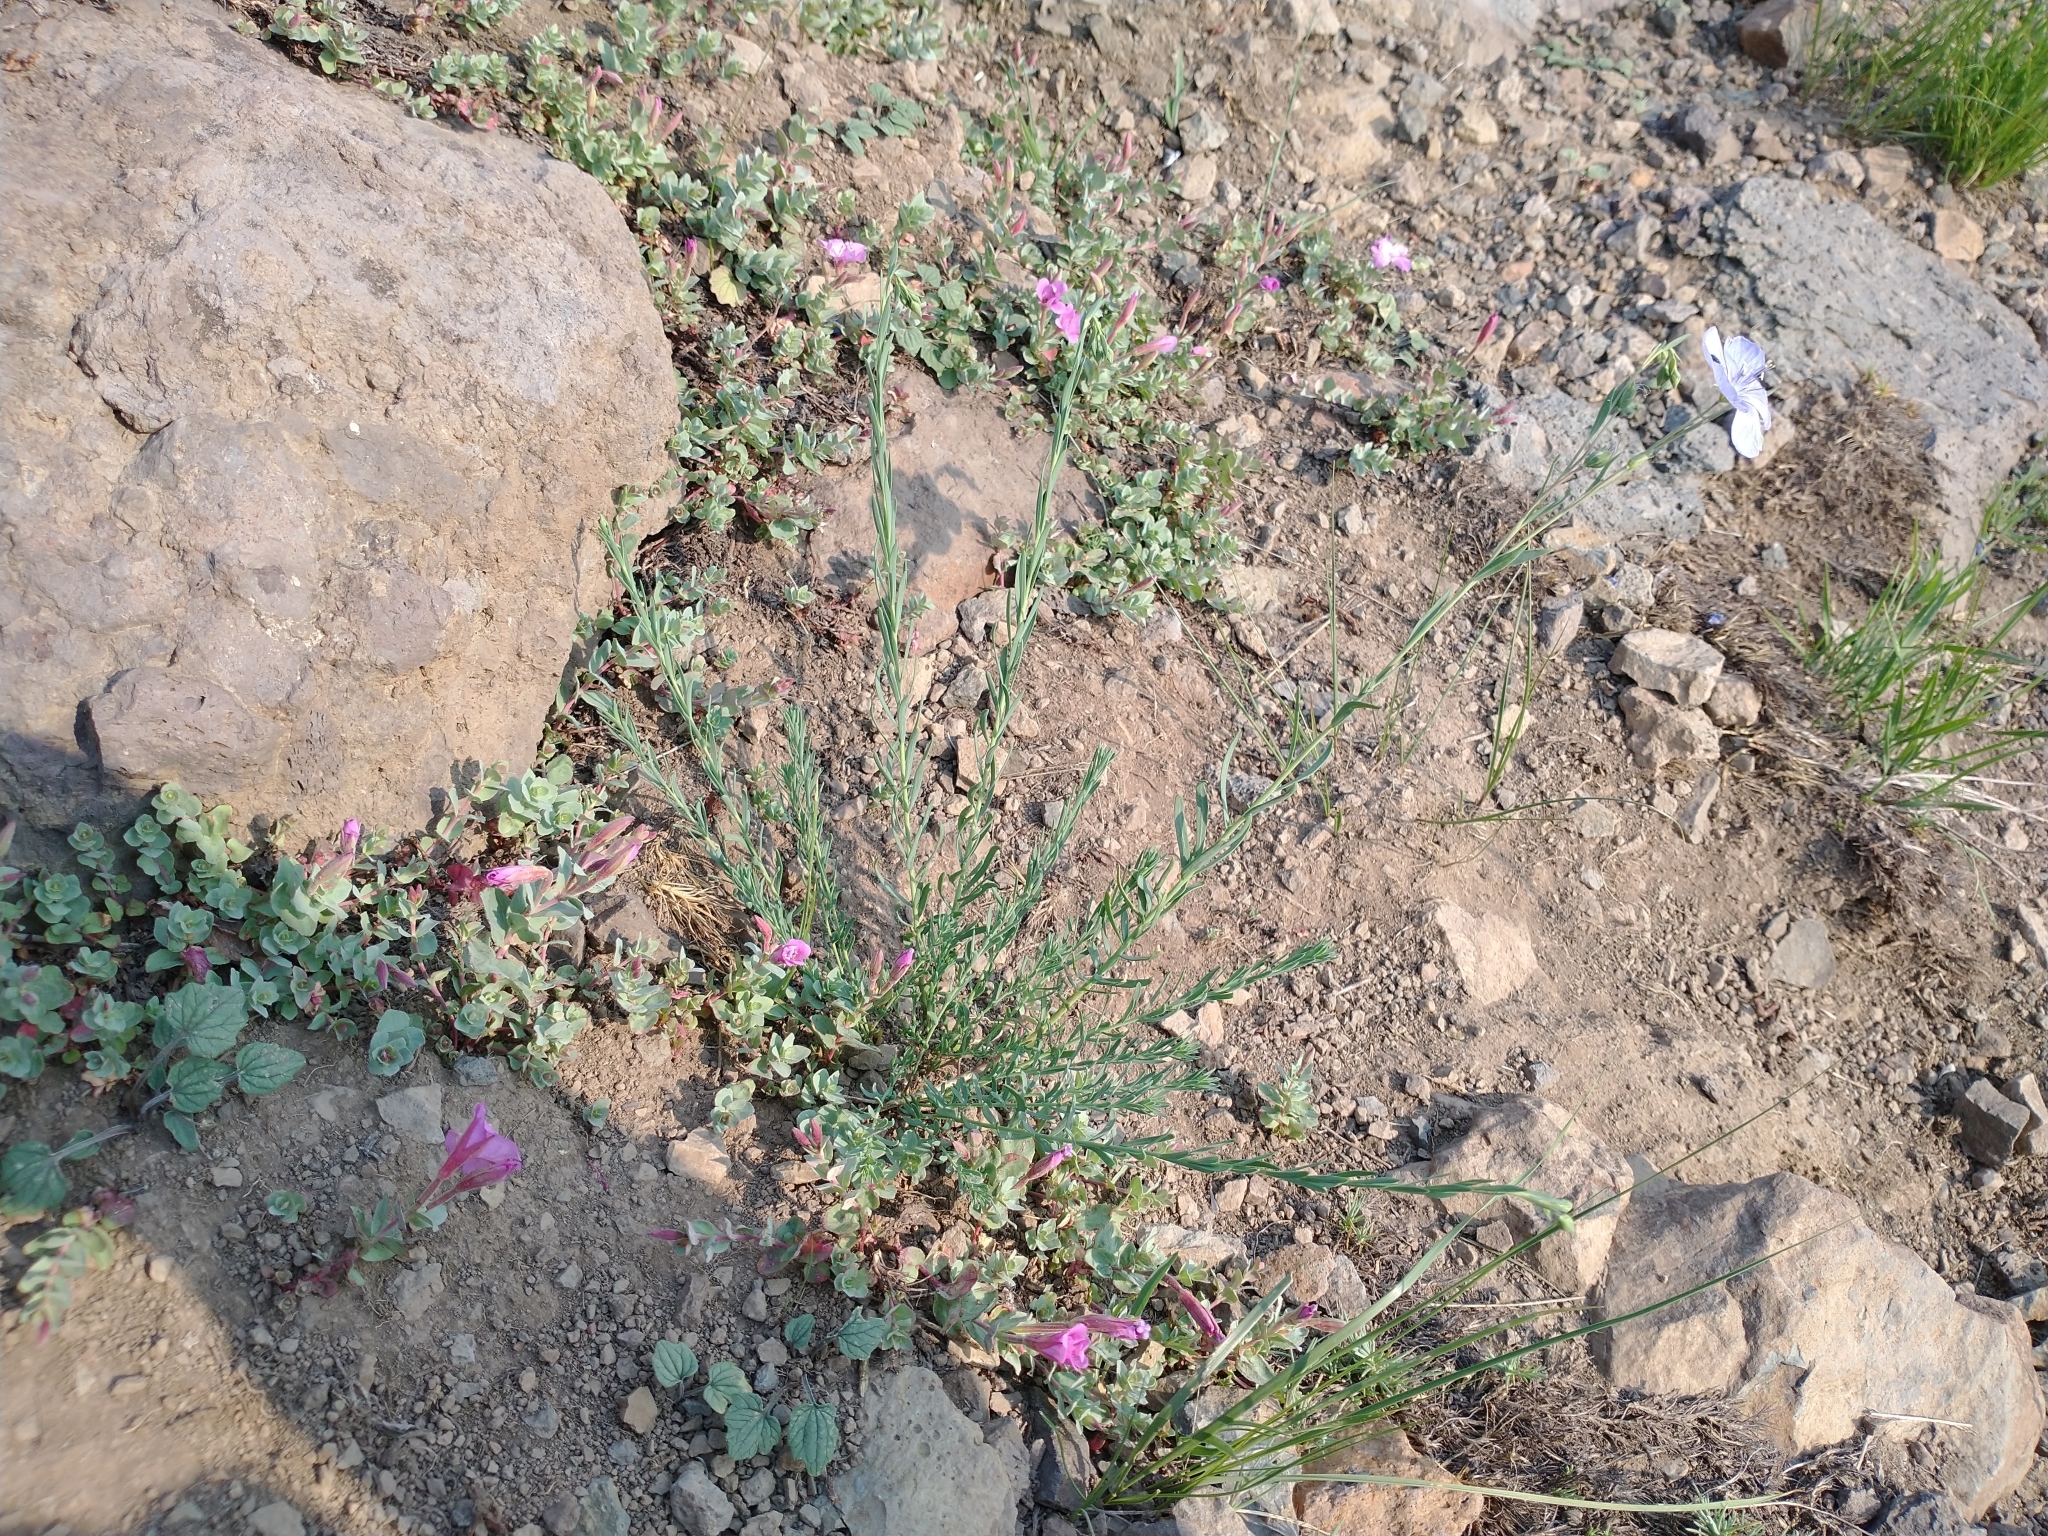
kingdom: Plantae
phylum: Tracheophyta
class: Magnoliopsida
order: Malpighiales
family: Linaceae
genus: Linum
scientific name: Linum lewisii
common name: Prairie flax
